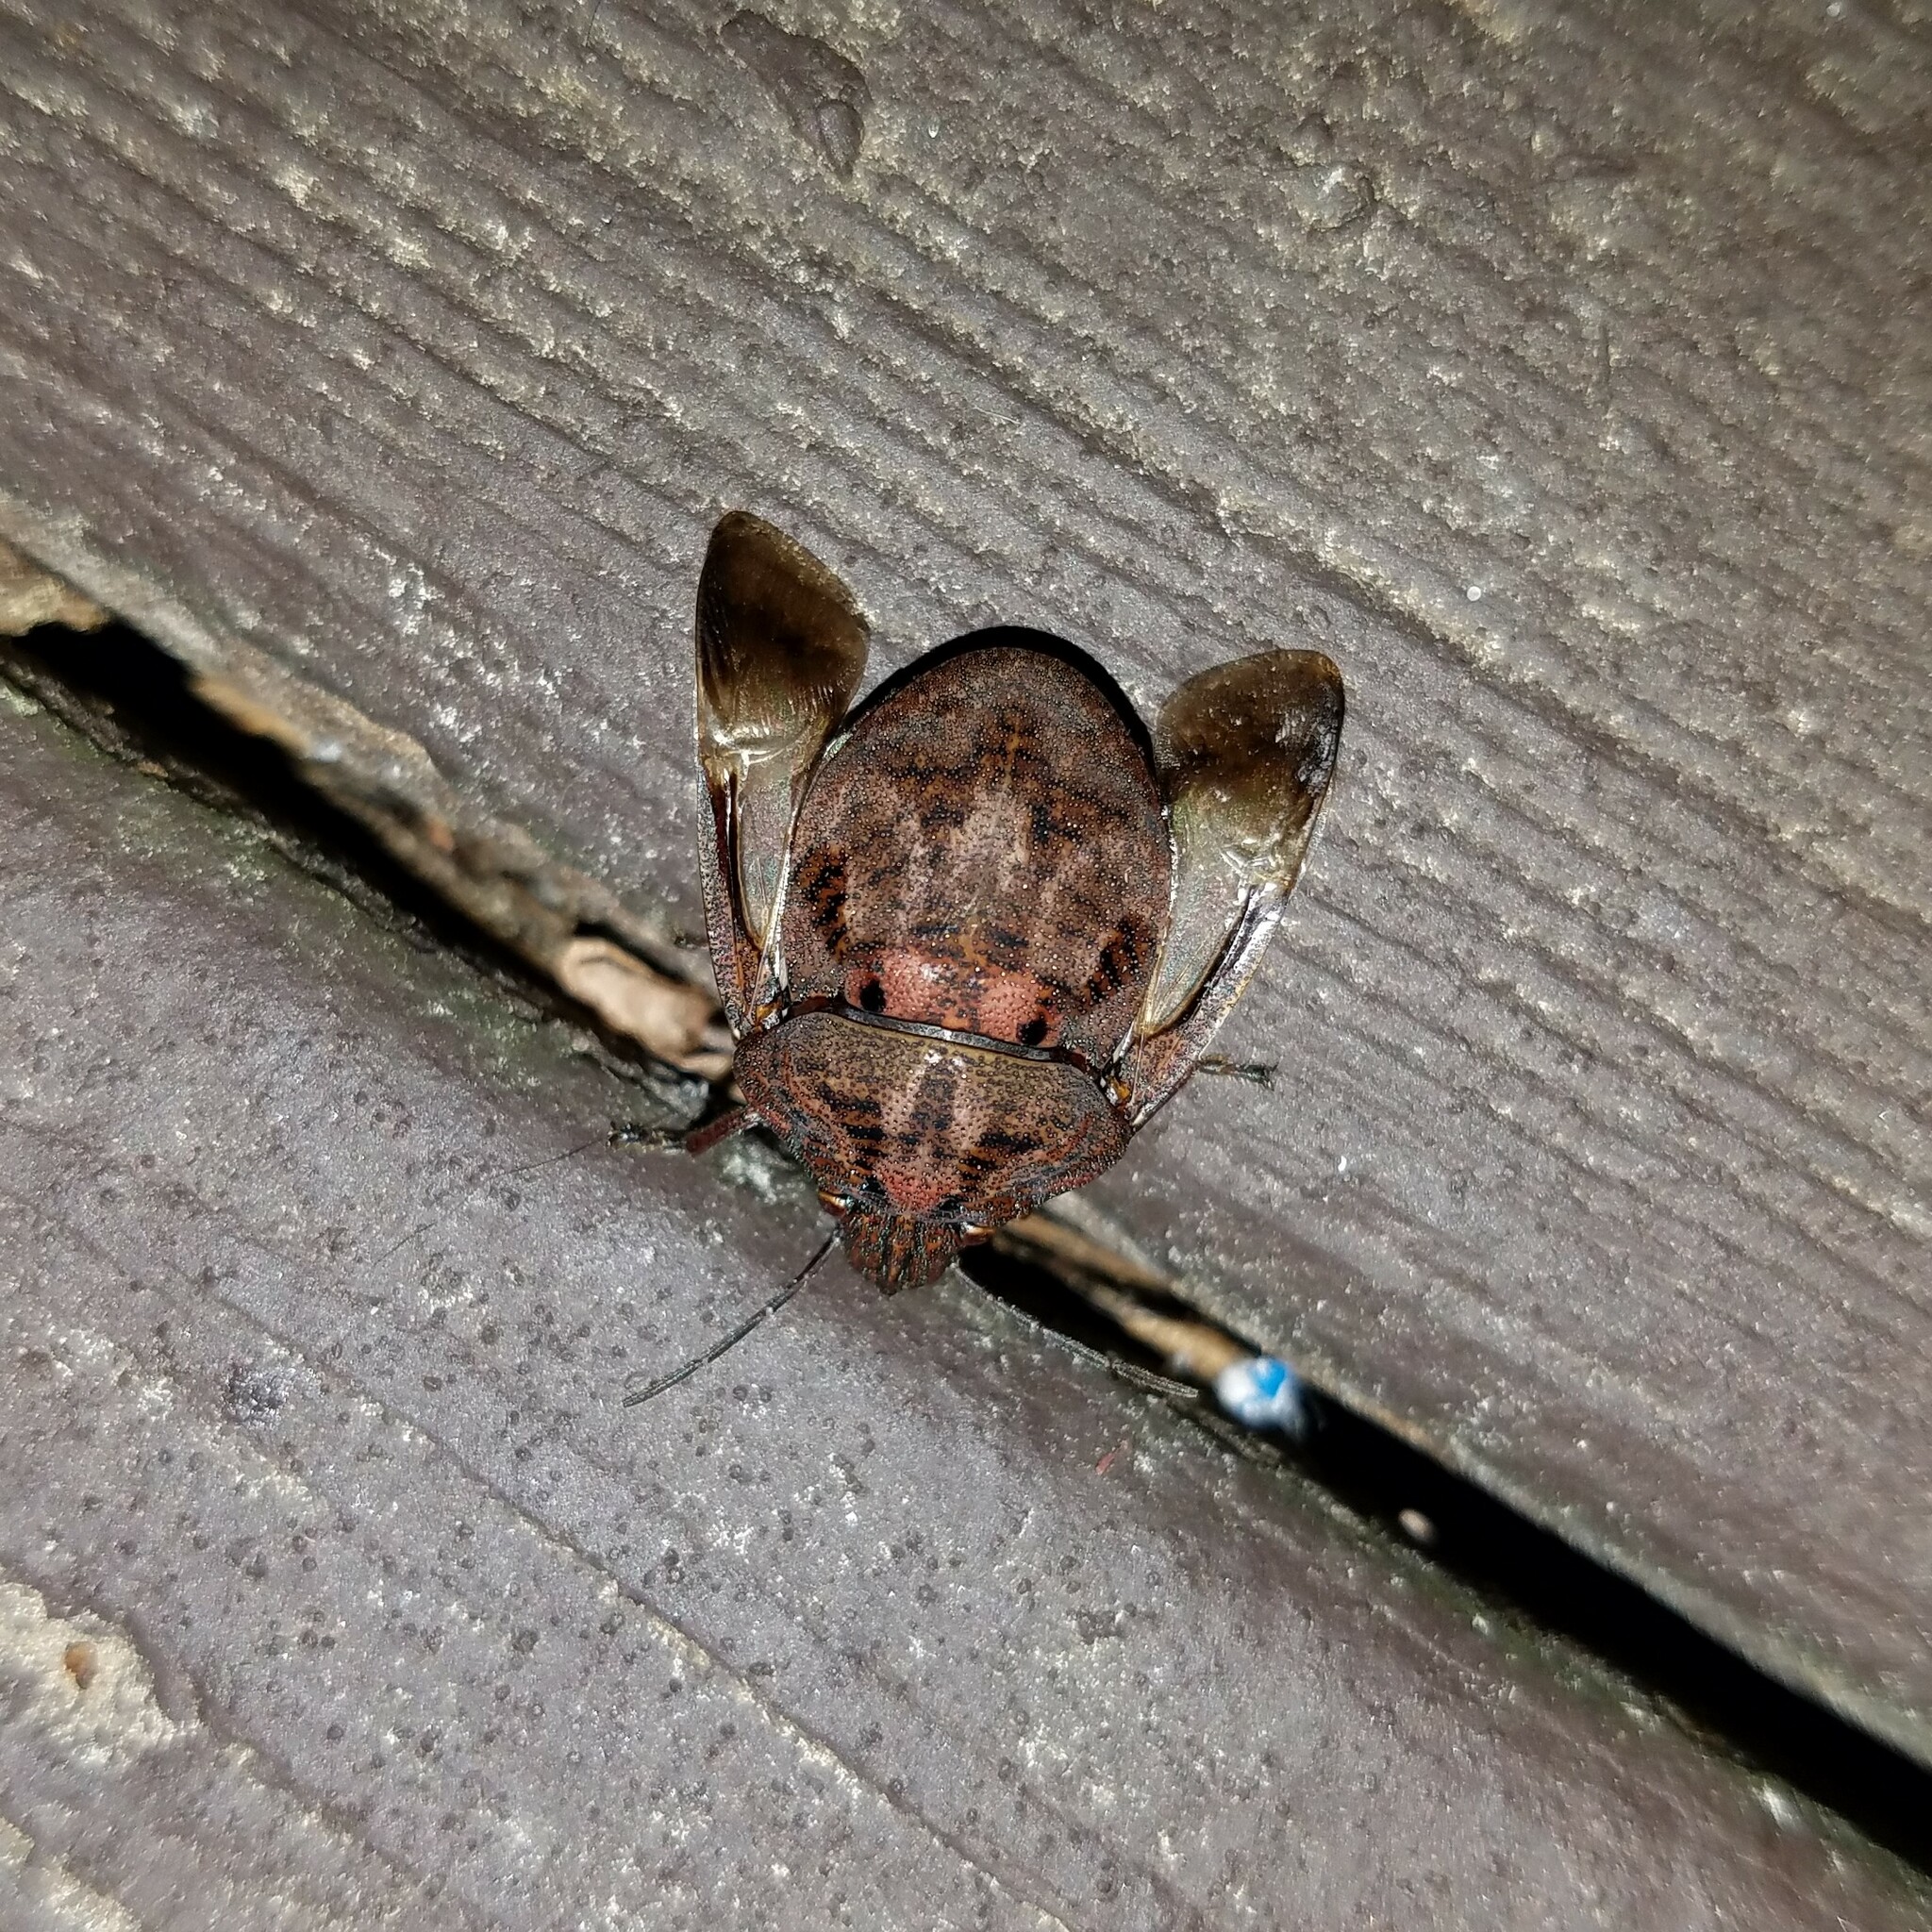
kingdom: Animalia
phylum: Arthropoda
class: Insecta
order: Hemiptera
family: Scutelleridae
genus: Tetyra
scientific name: Tetyra bipunctata
